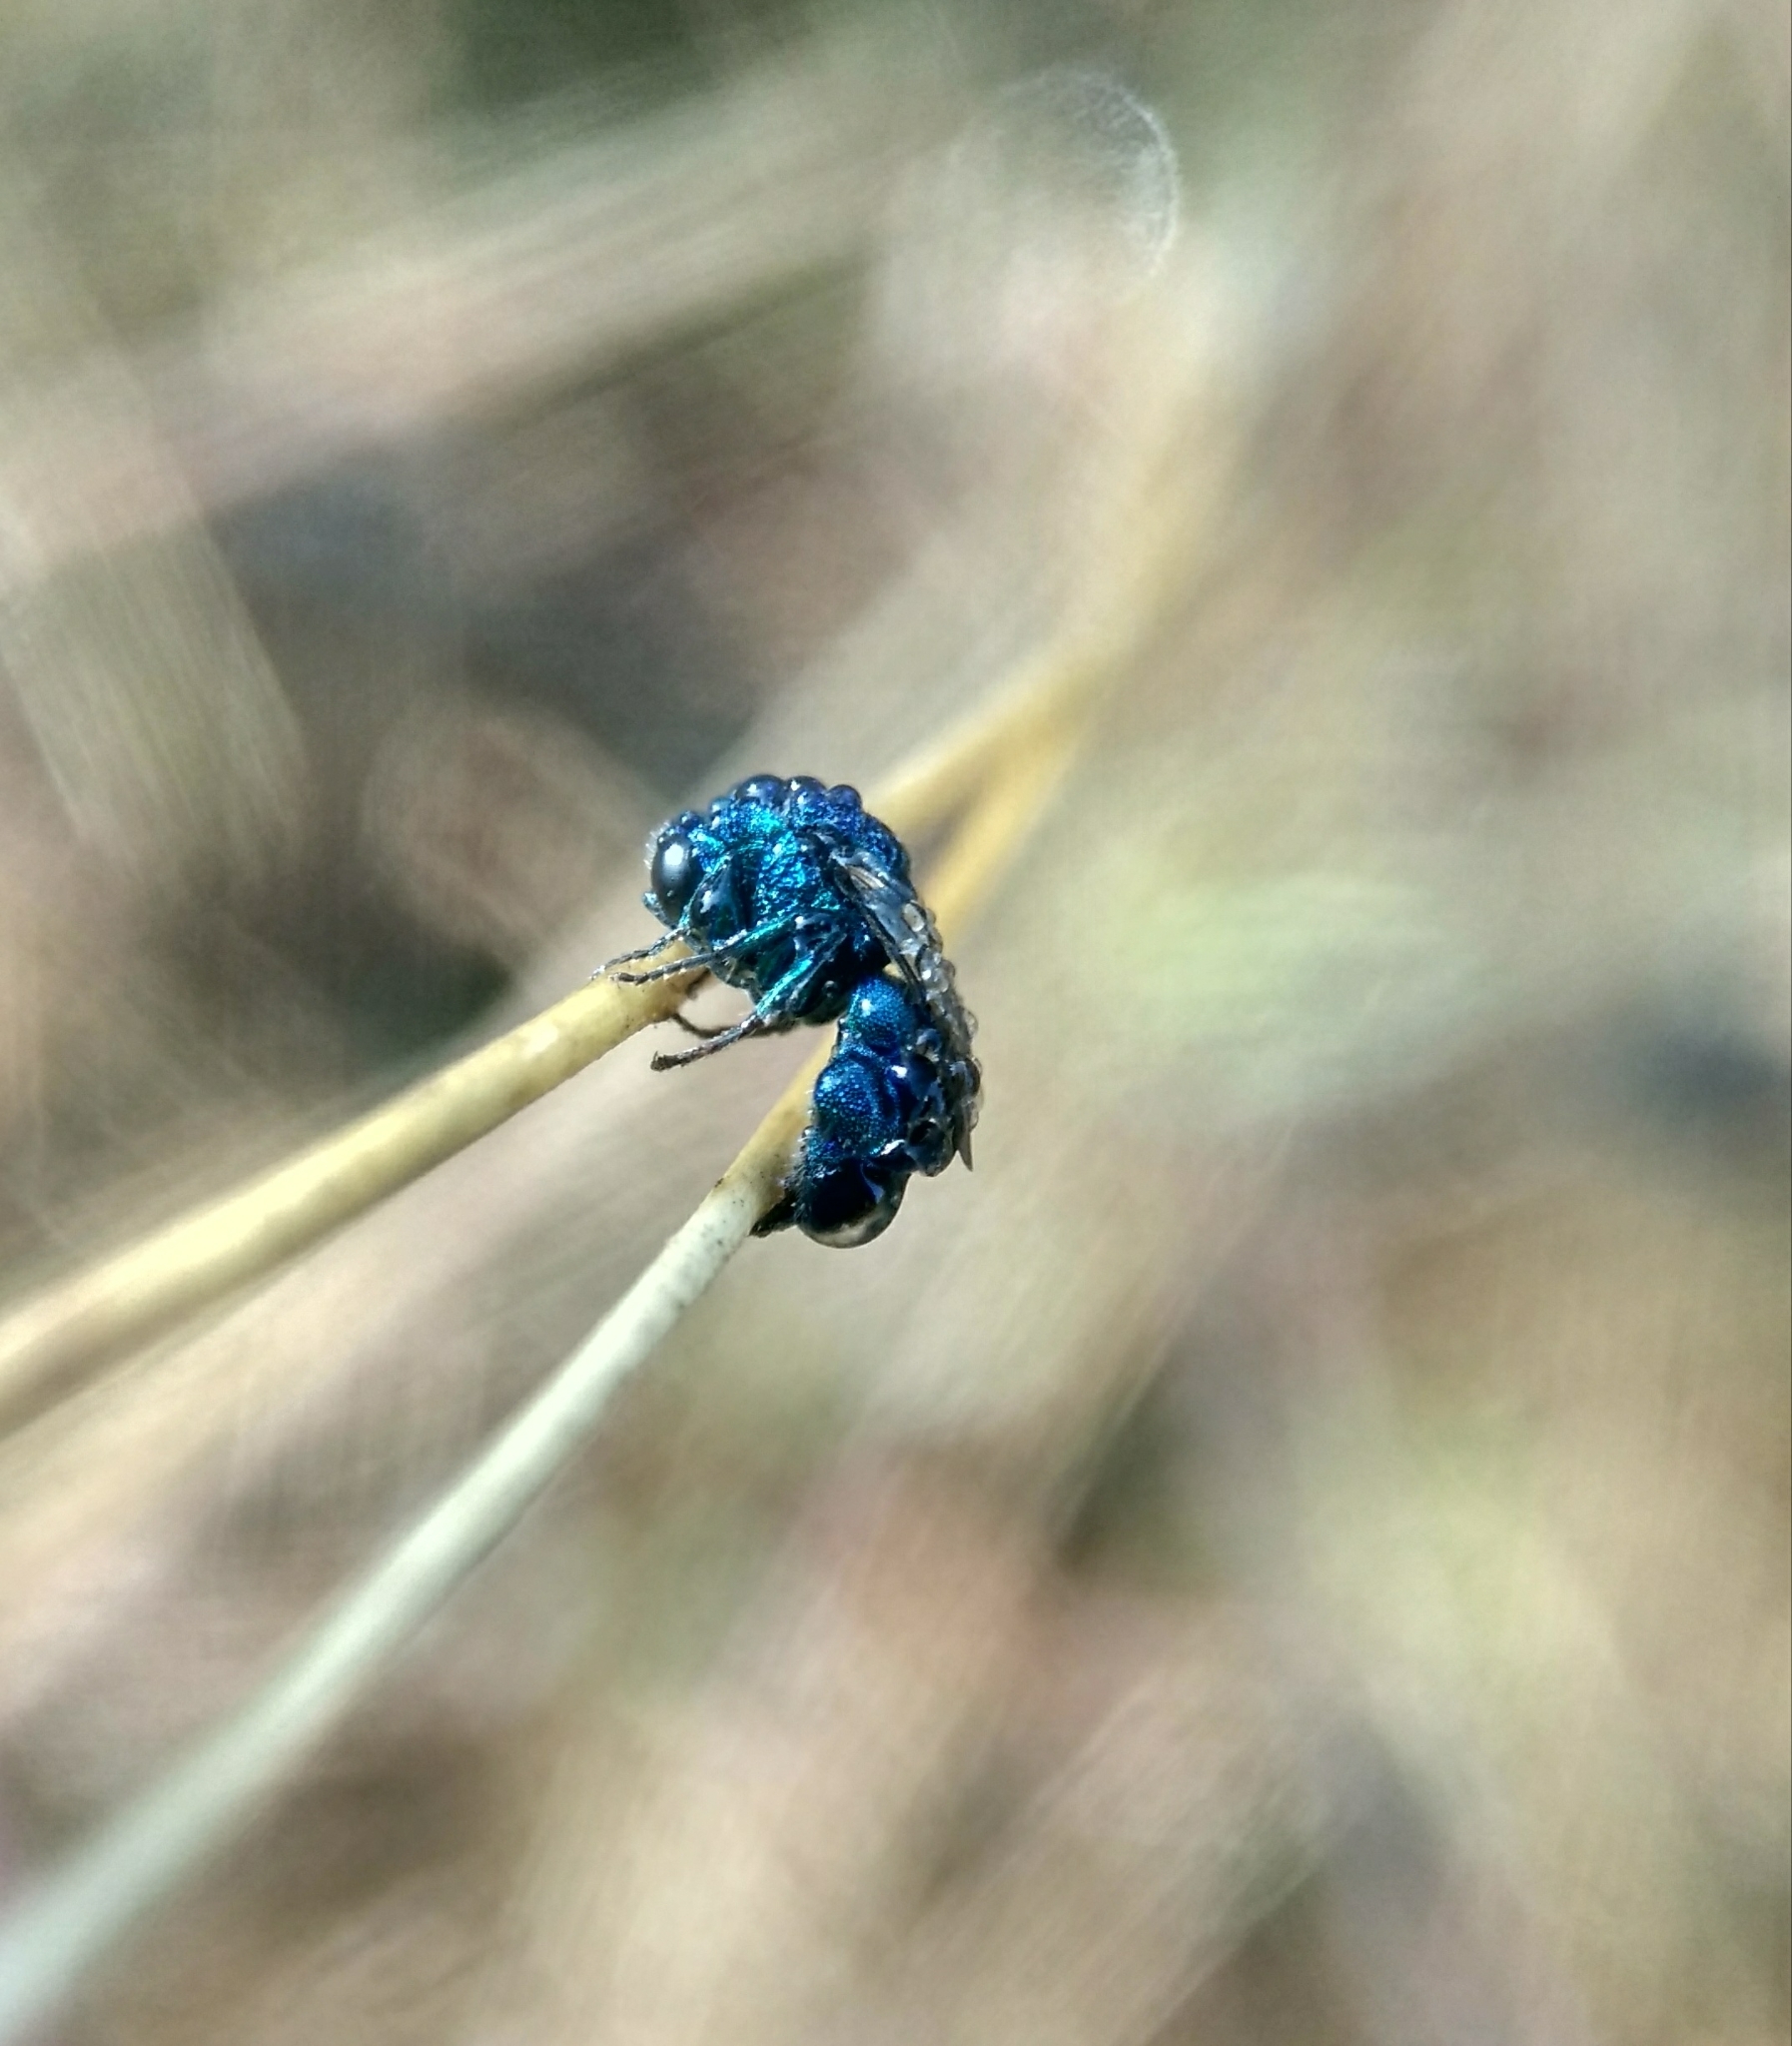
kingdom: Animalia
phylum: Arthropoda
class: Insecta
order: Hymenoptera
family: Chrysididae
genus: Holopyga
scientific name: Holopyga
